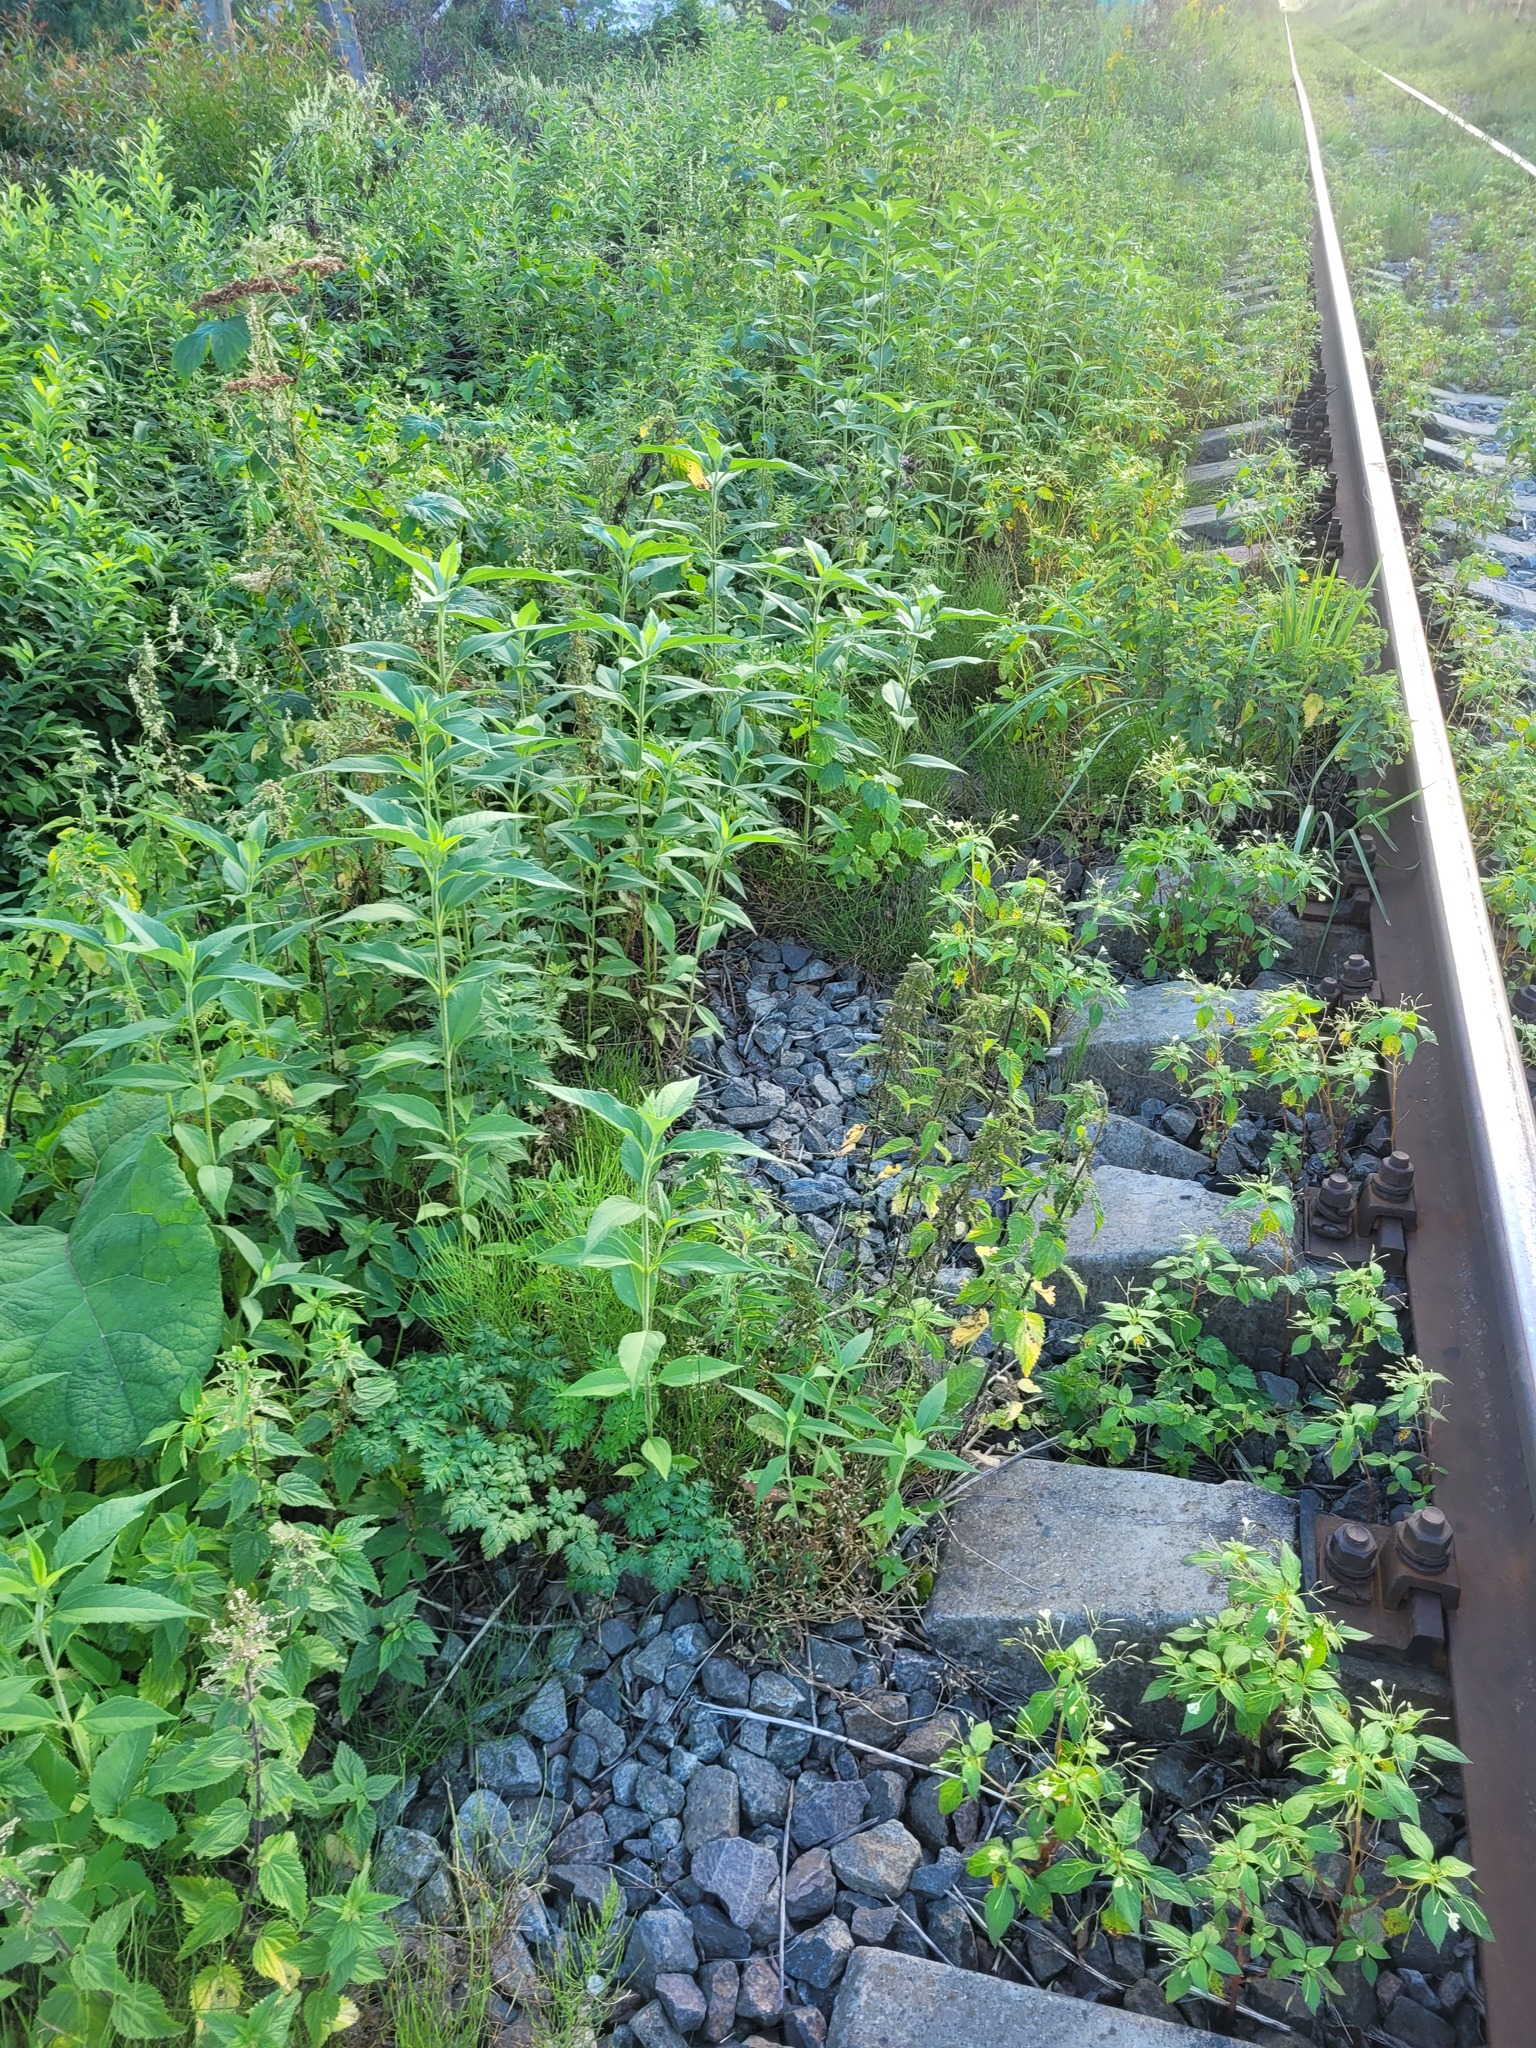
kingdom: Plantae
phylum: Tracheophyta
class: Magnoliopsida
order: Asterales
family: Asteraceae
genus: Helianthus
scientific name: Helianthus tuberosus
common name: Jerusalem artichoke
